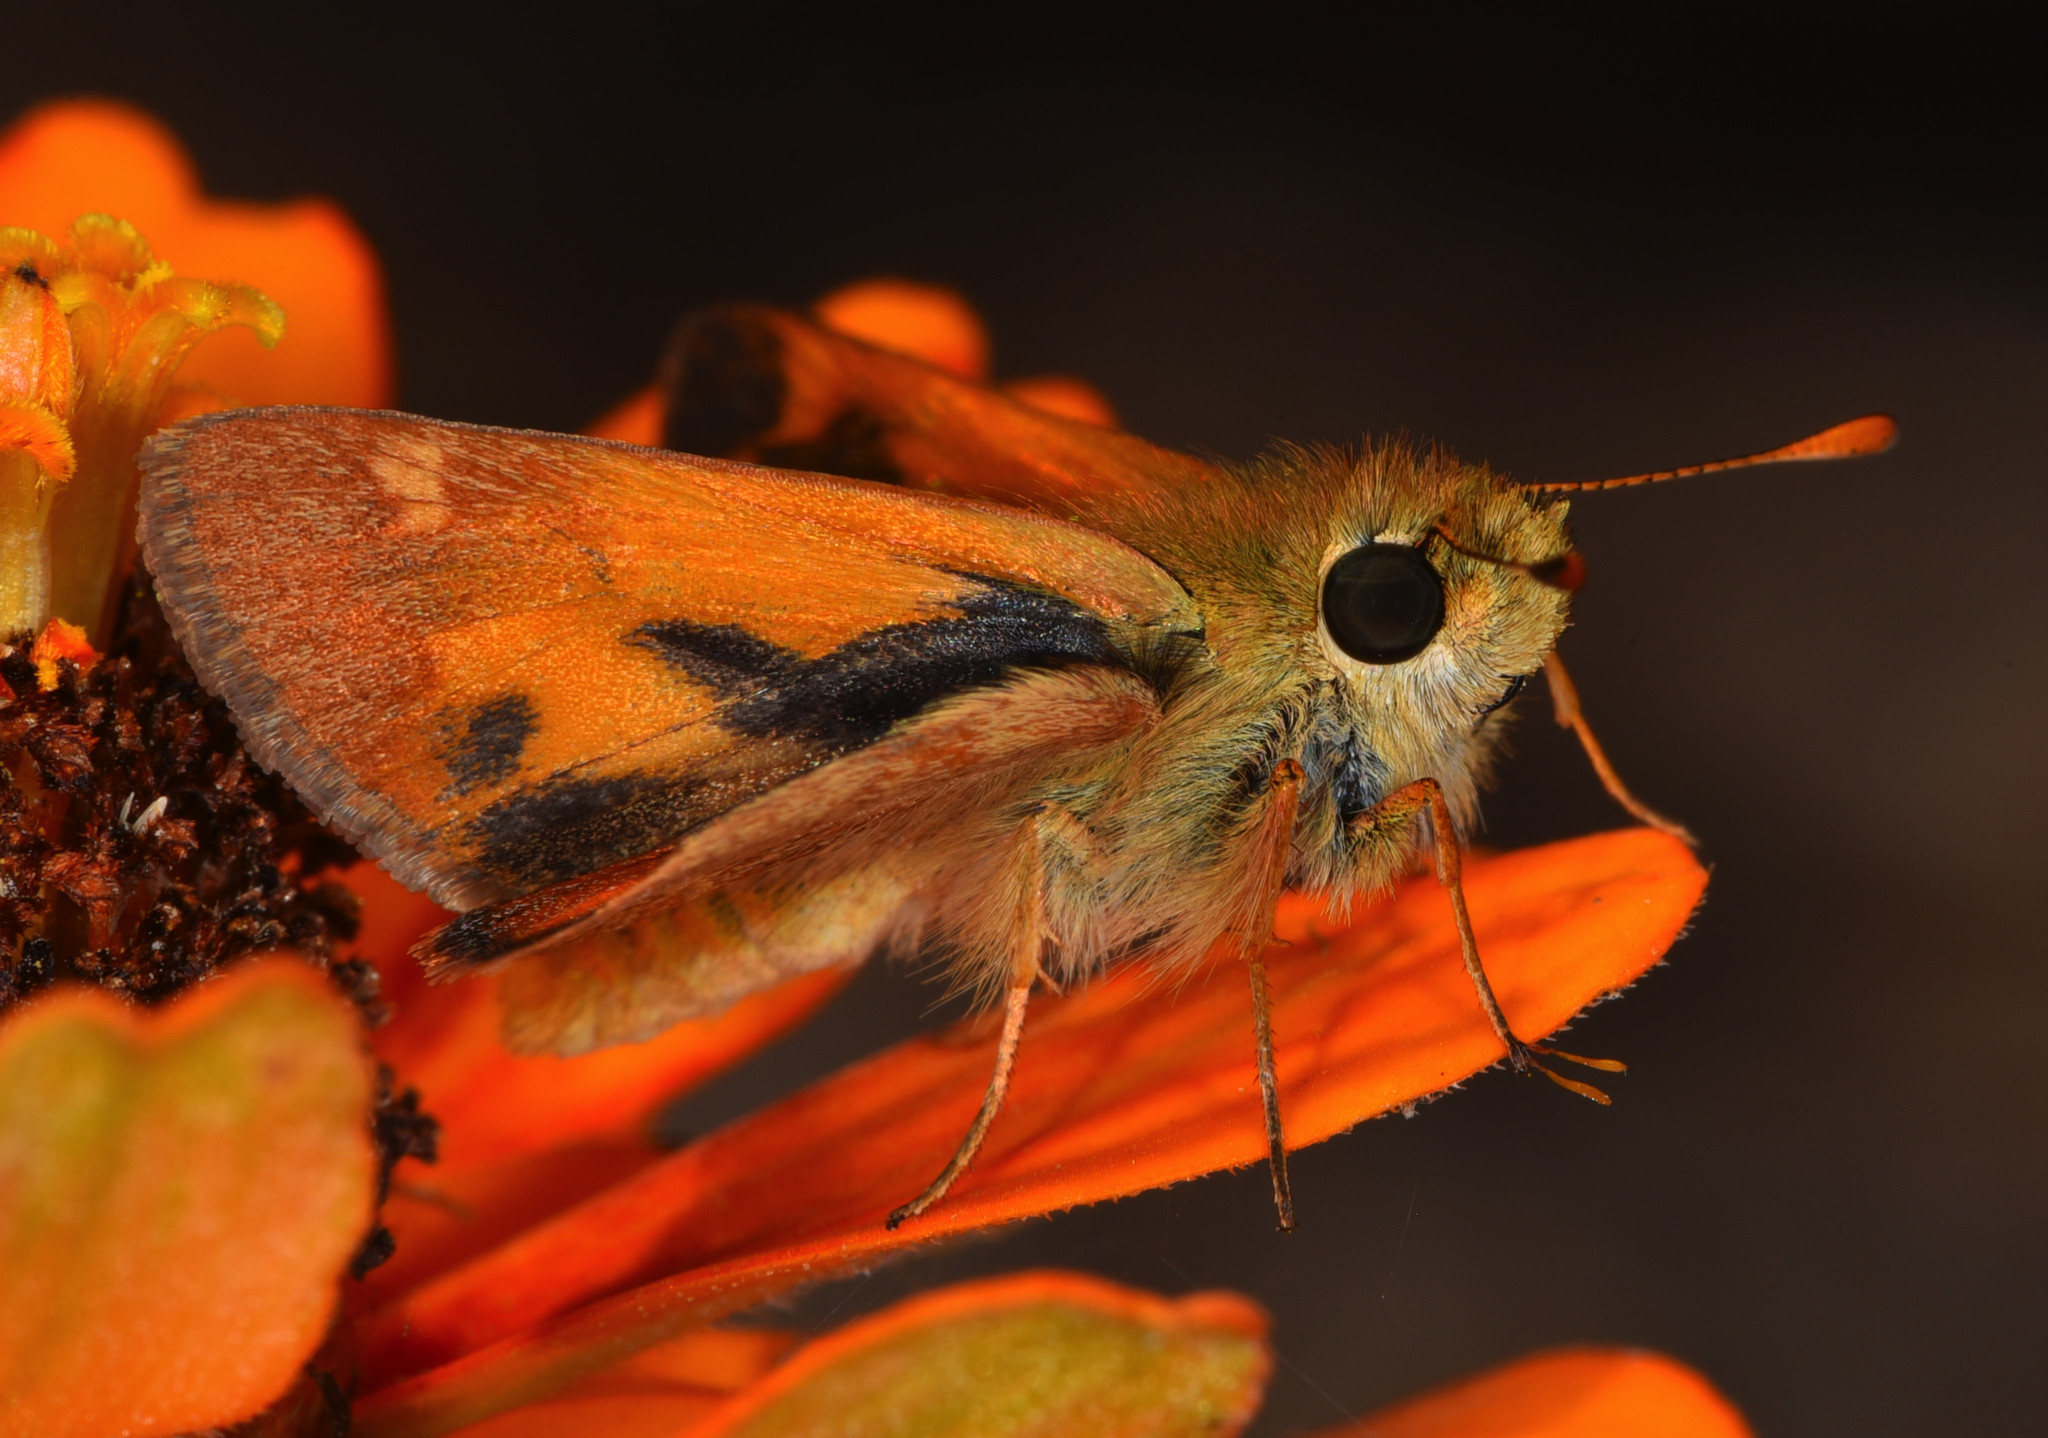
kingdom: Animalia
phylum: Arthropoda
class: Insecta
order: Lepidoptera
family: Hesperiidae
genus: Ochlodes
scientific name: Ochlodes sylvanoides
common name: Woodland skipper
